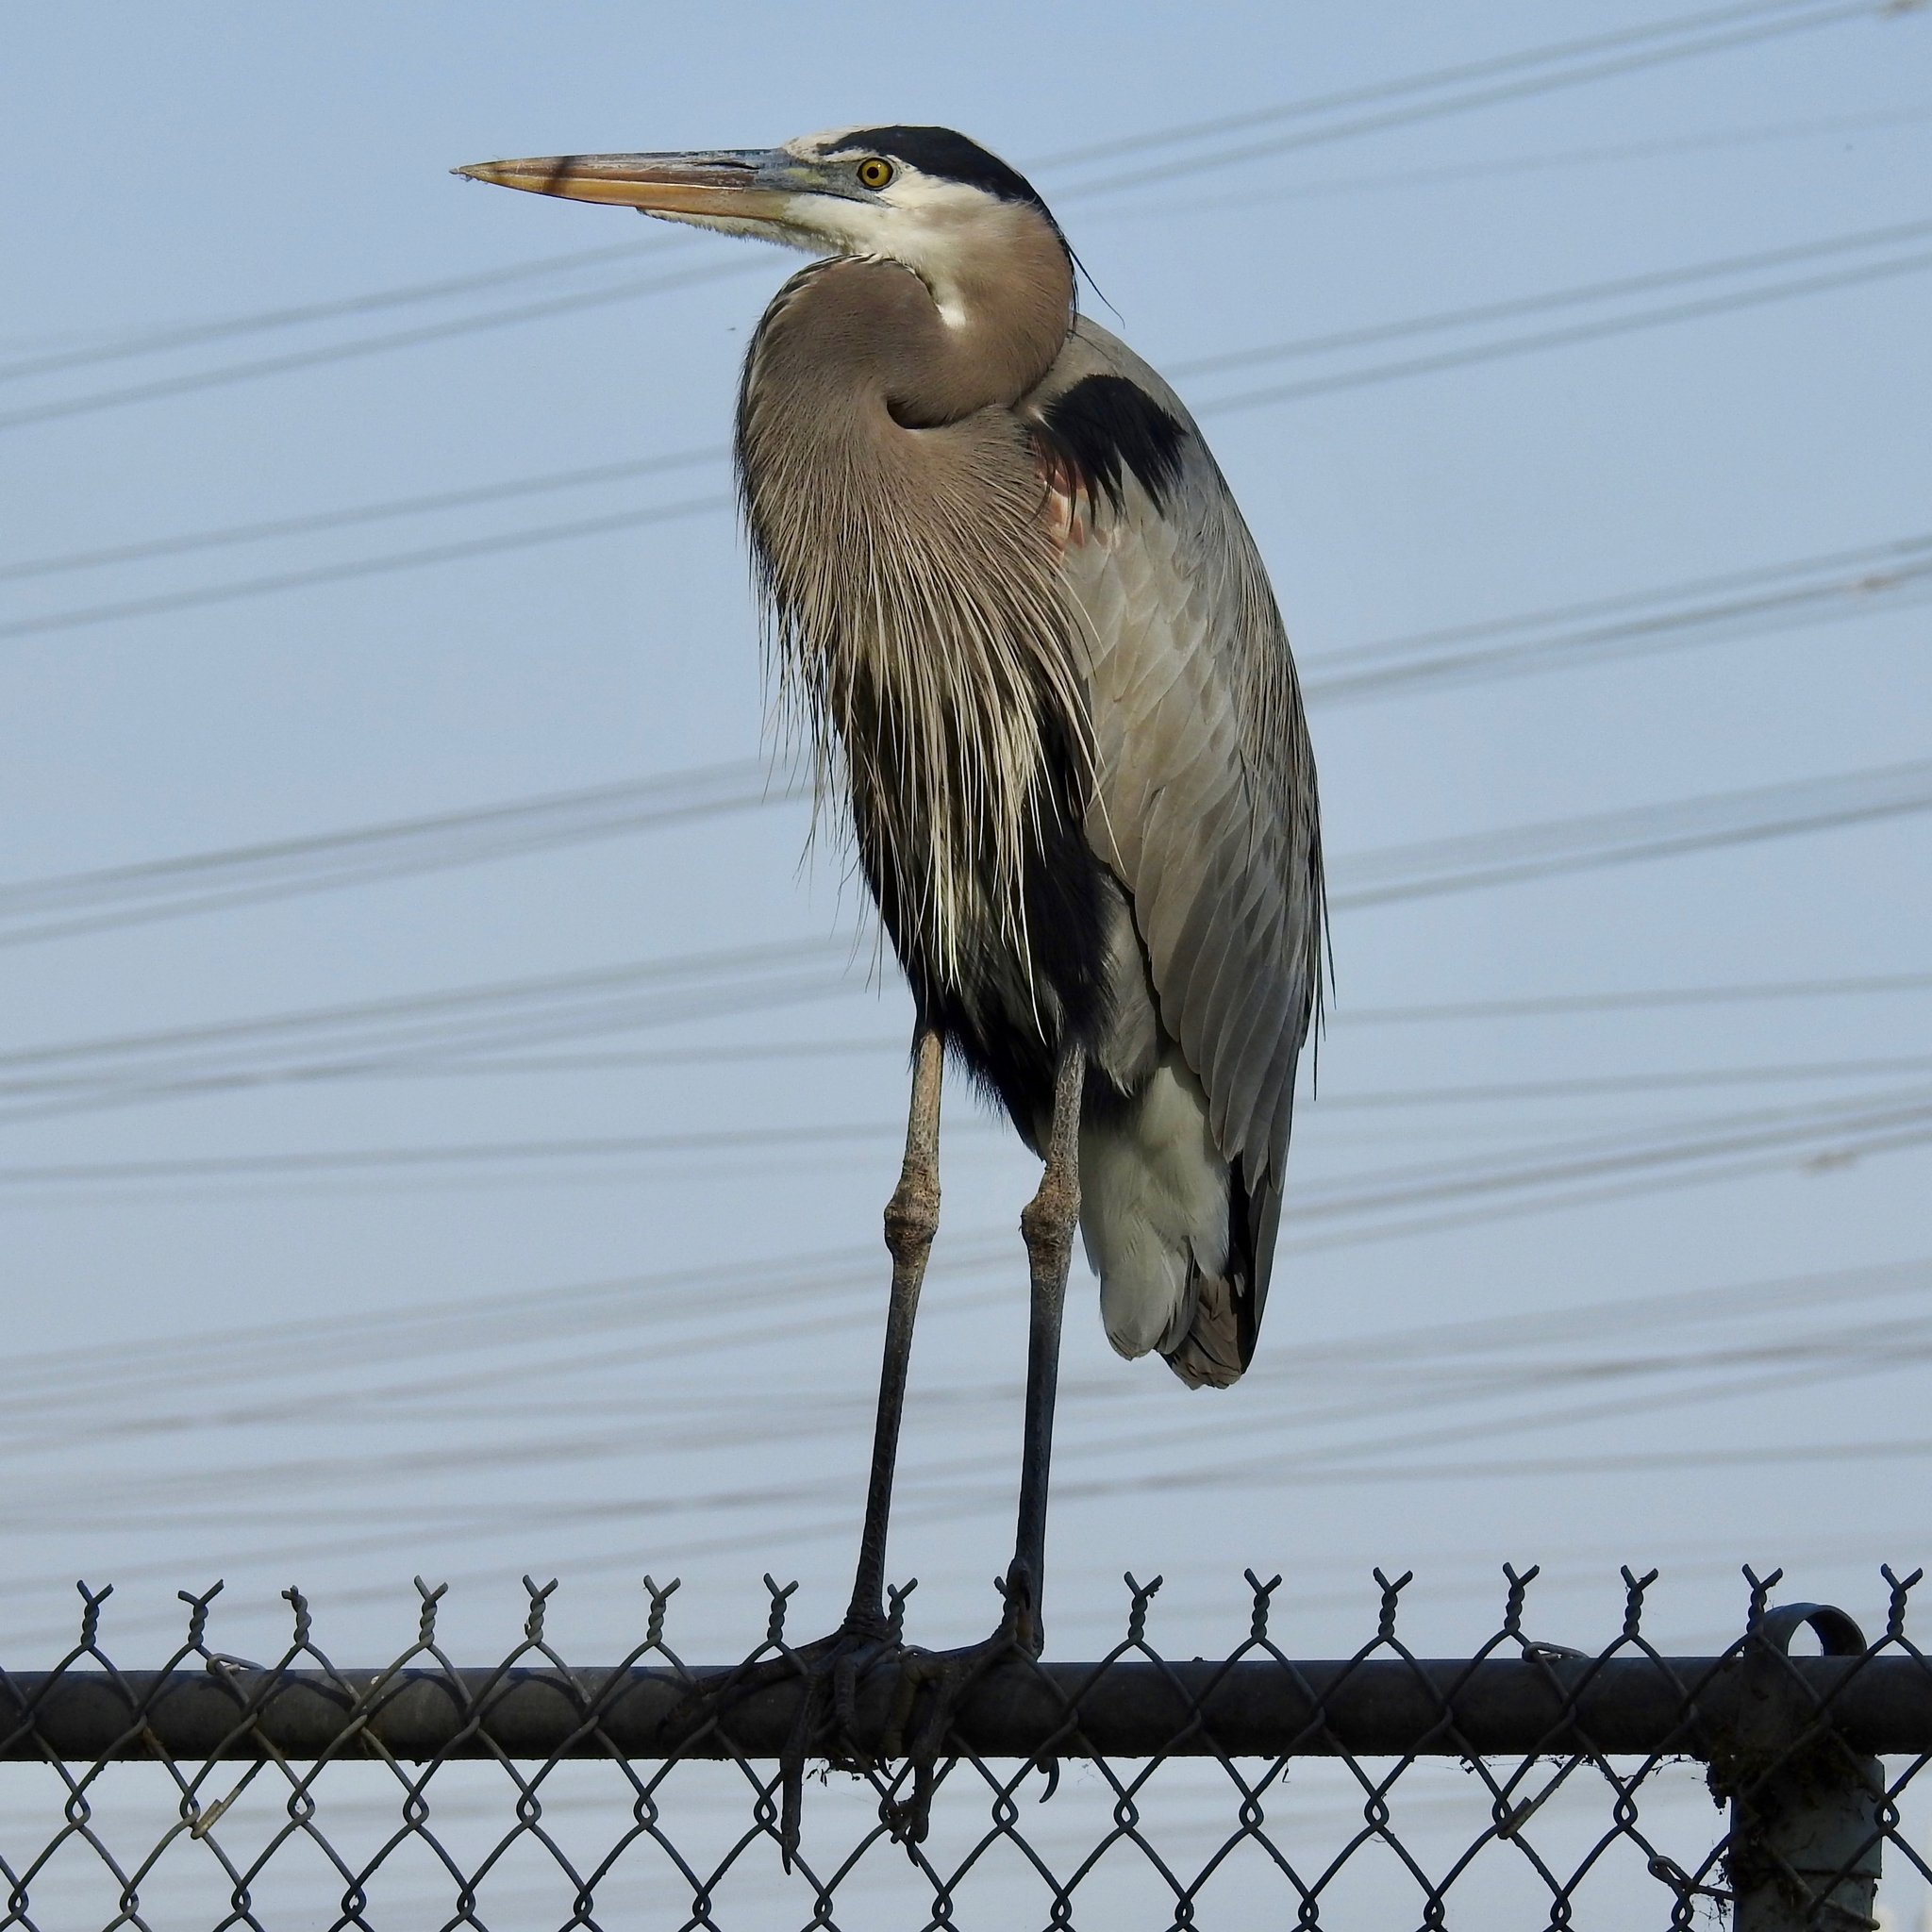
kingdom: Animalia
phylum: Chordata
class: Aves
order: Pelecaniformes
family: Ardeidae
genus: Ardea
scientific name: Ardea herodias
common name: Great blue heron
